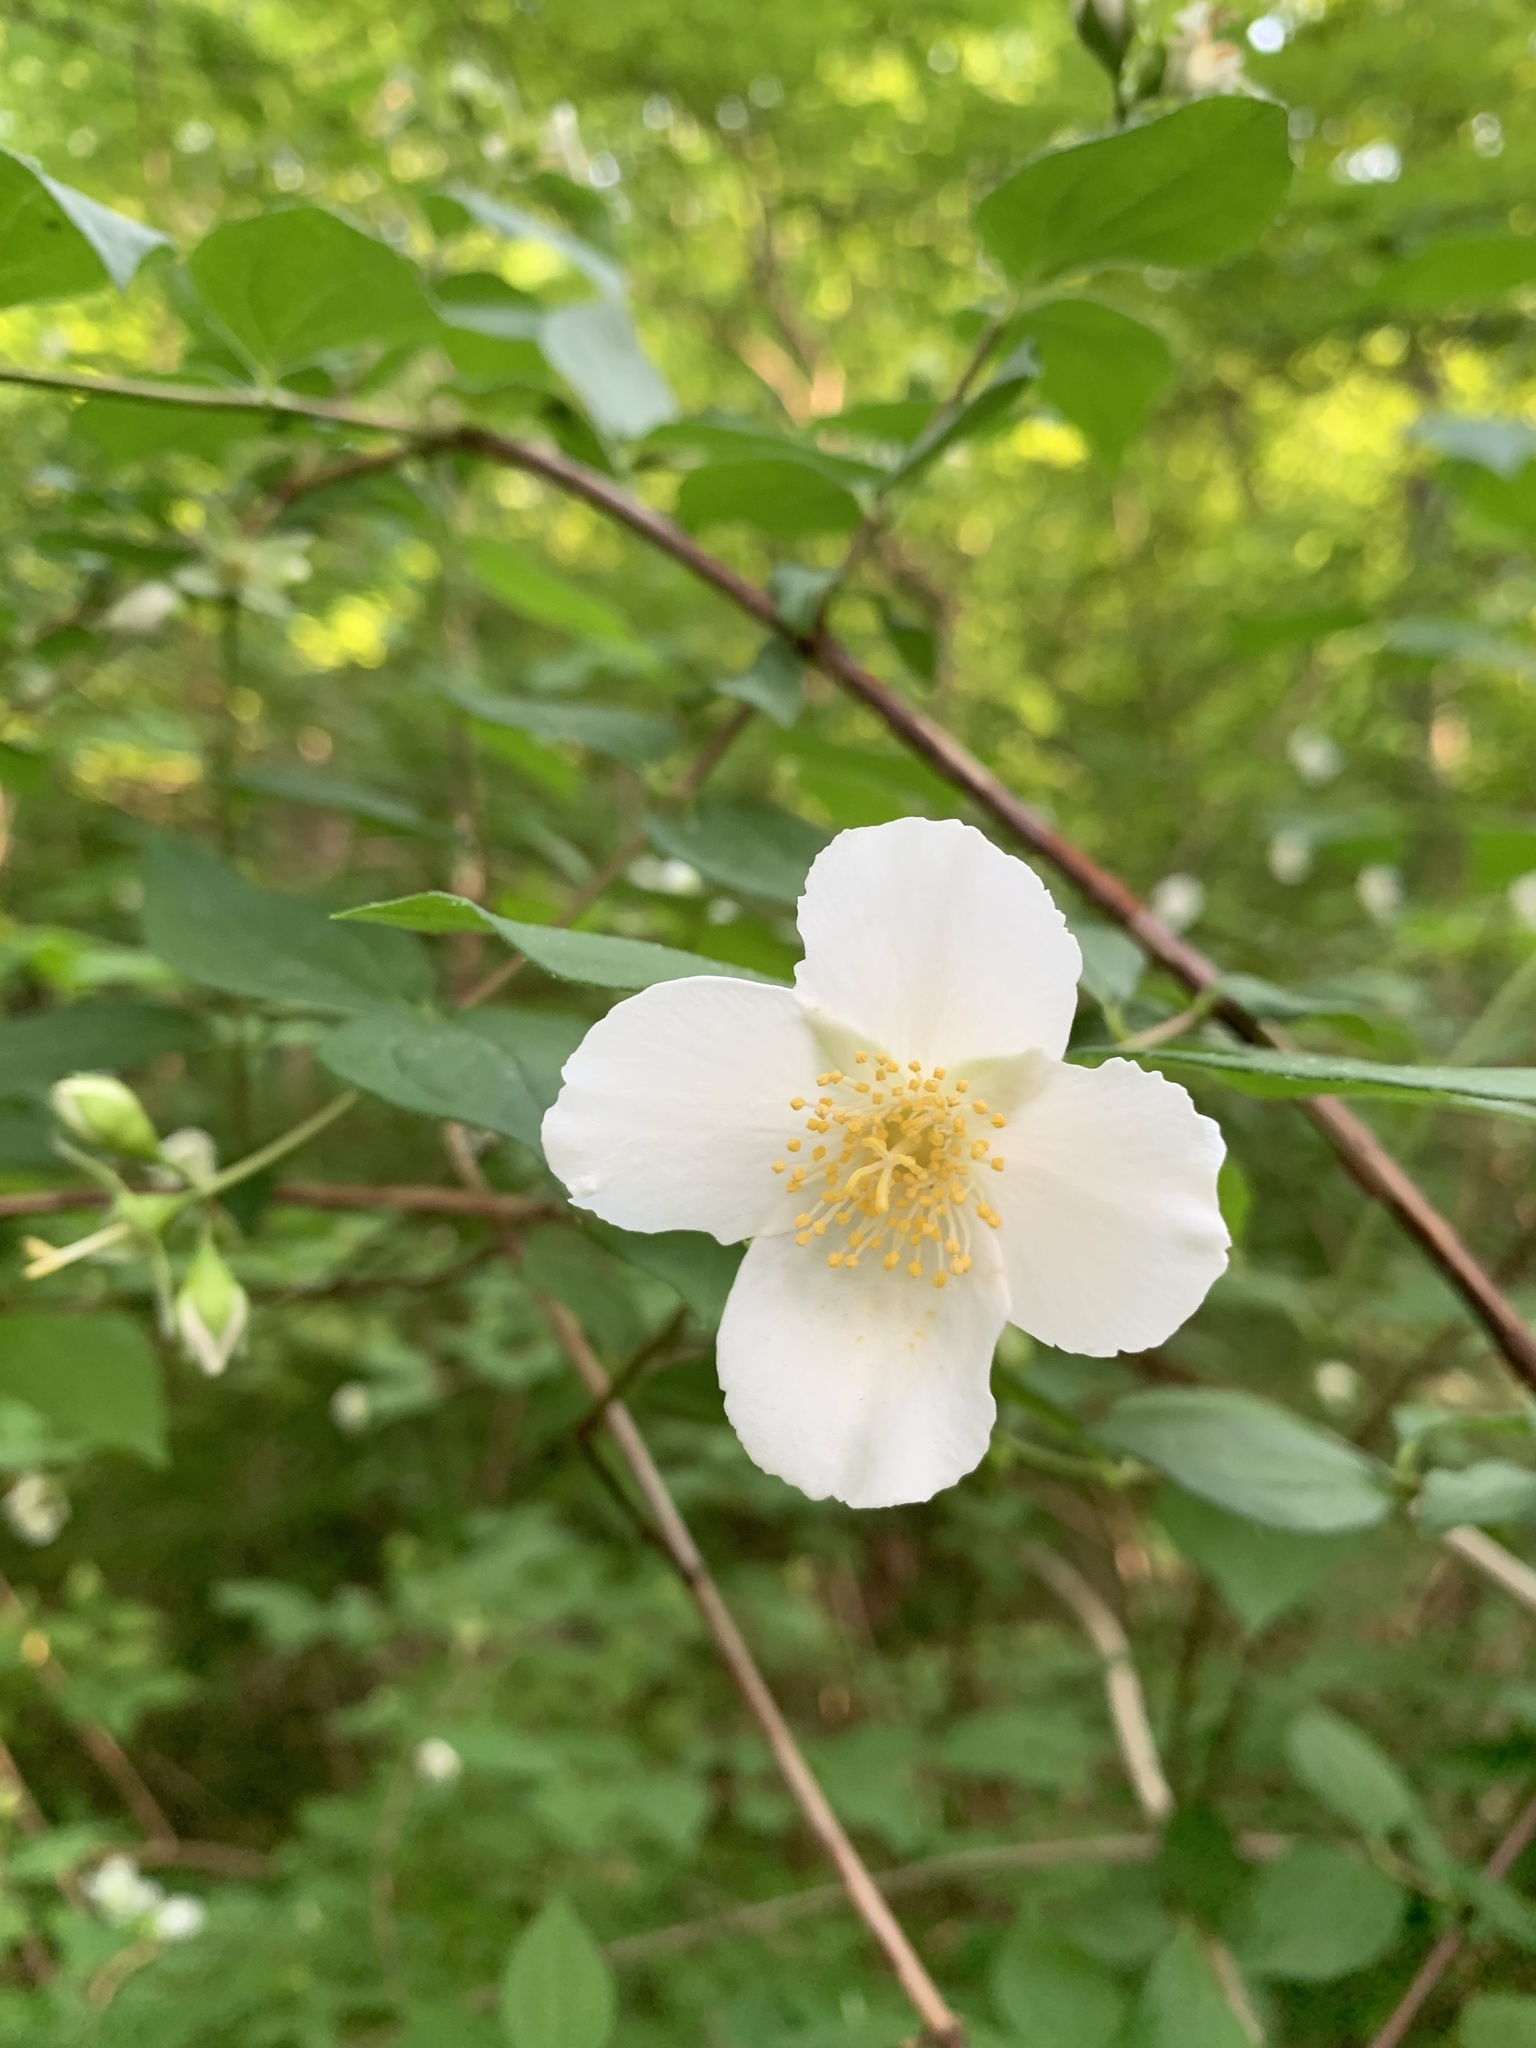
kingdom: Plantae
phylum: Tracheophyta
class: Magnoliopsida
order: Cornales
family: Hydrangeaceae
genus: Philadelphus
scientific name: Philadelphus inodorus
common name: Scentless mock-orange
